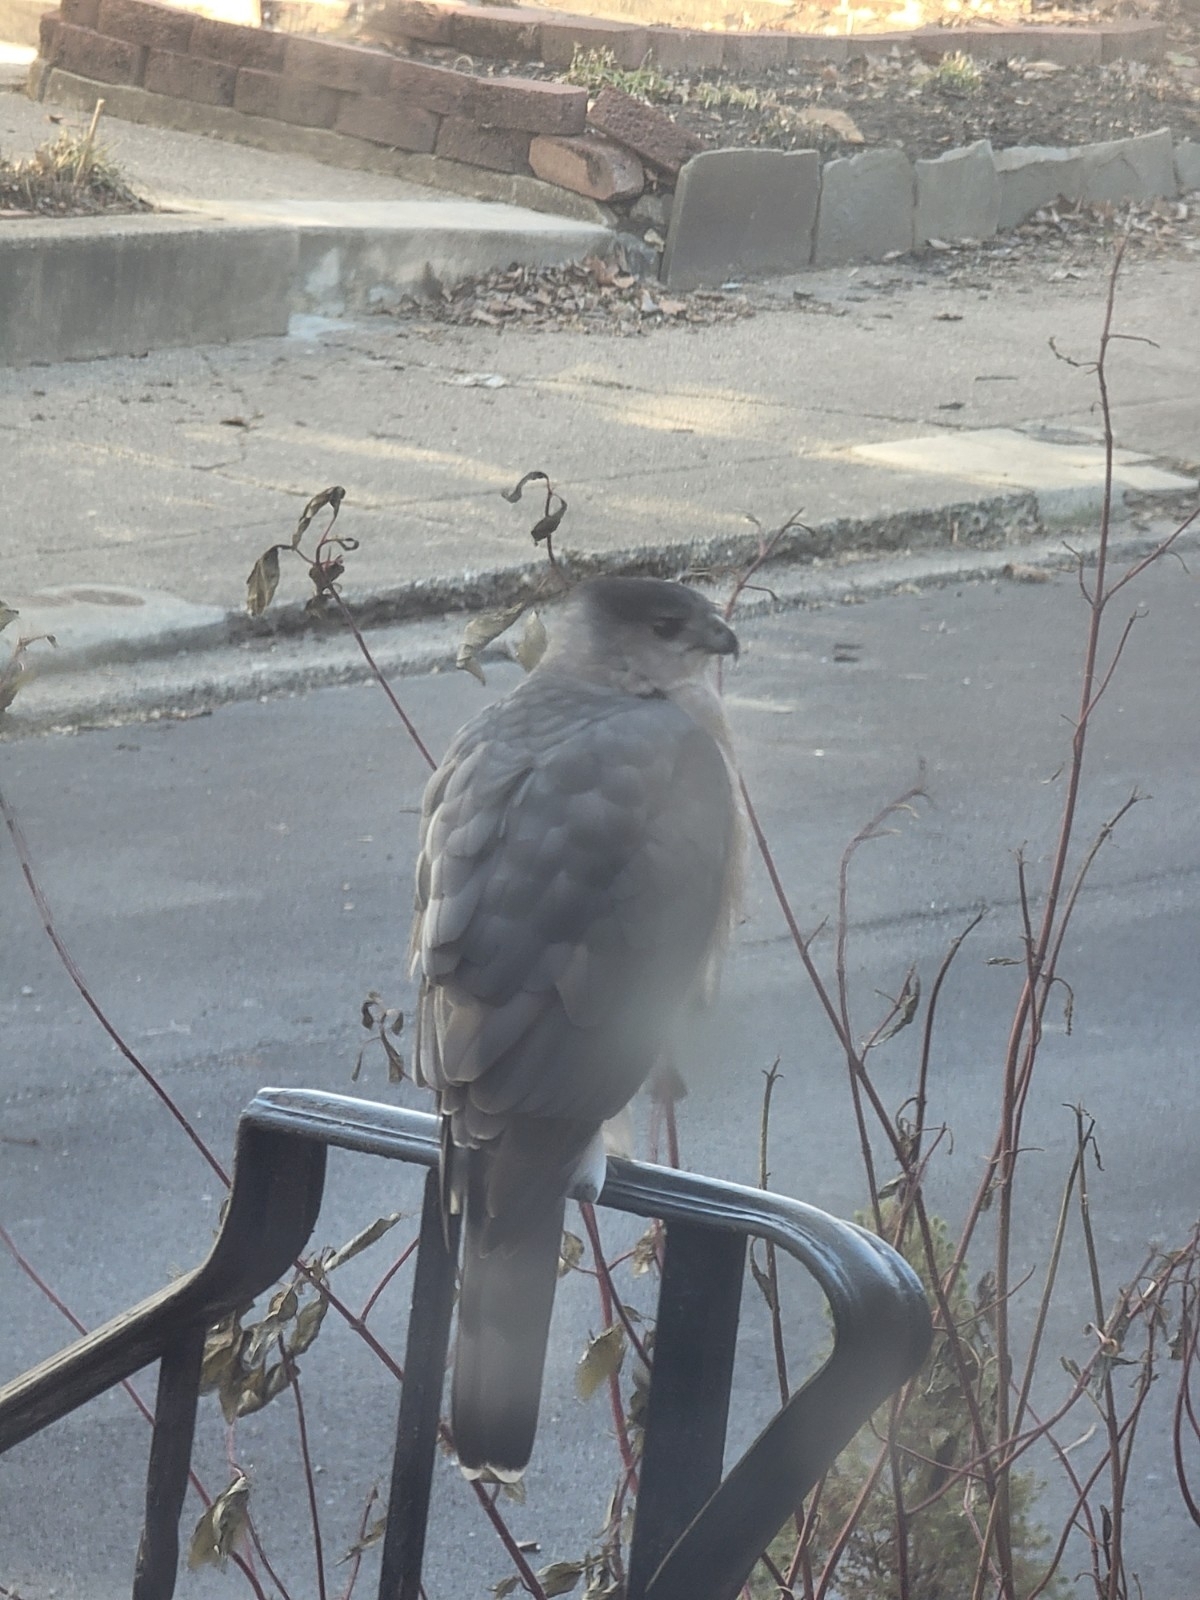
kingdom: Animalia
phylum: Chordata
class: Aves
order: Accipitriformes
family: Accipitridae
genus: Accipiter
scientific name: Accipiter cooperii
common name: Cooper's hawk
